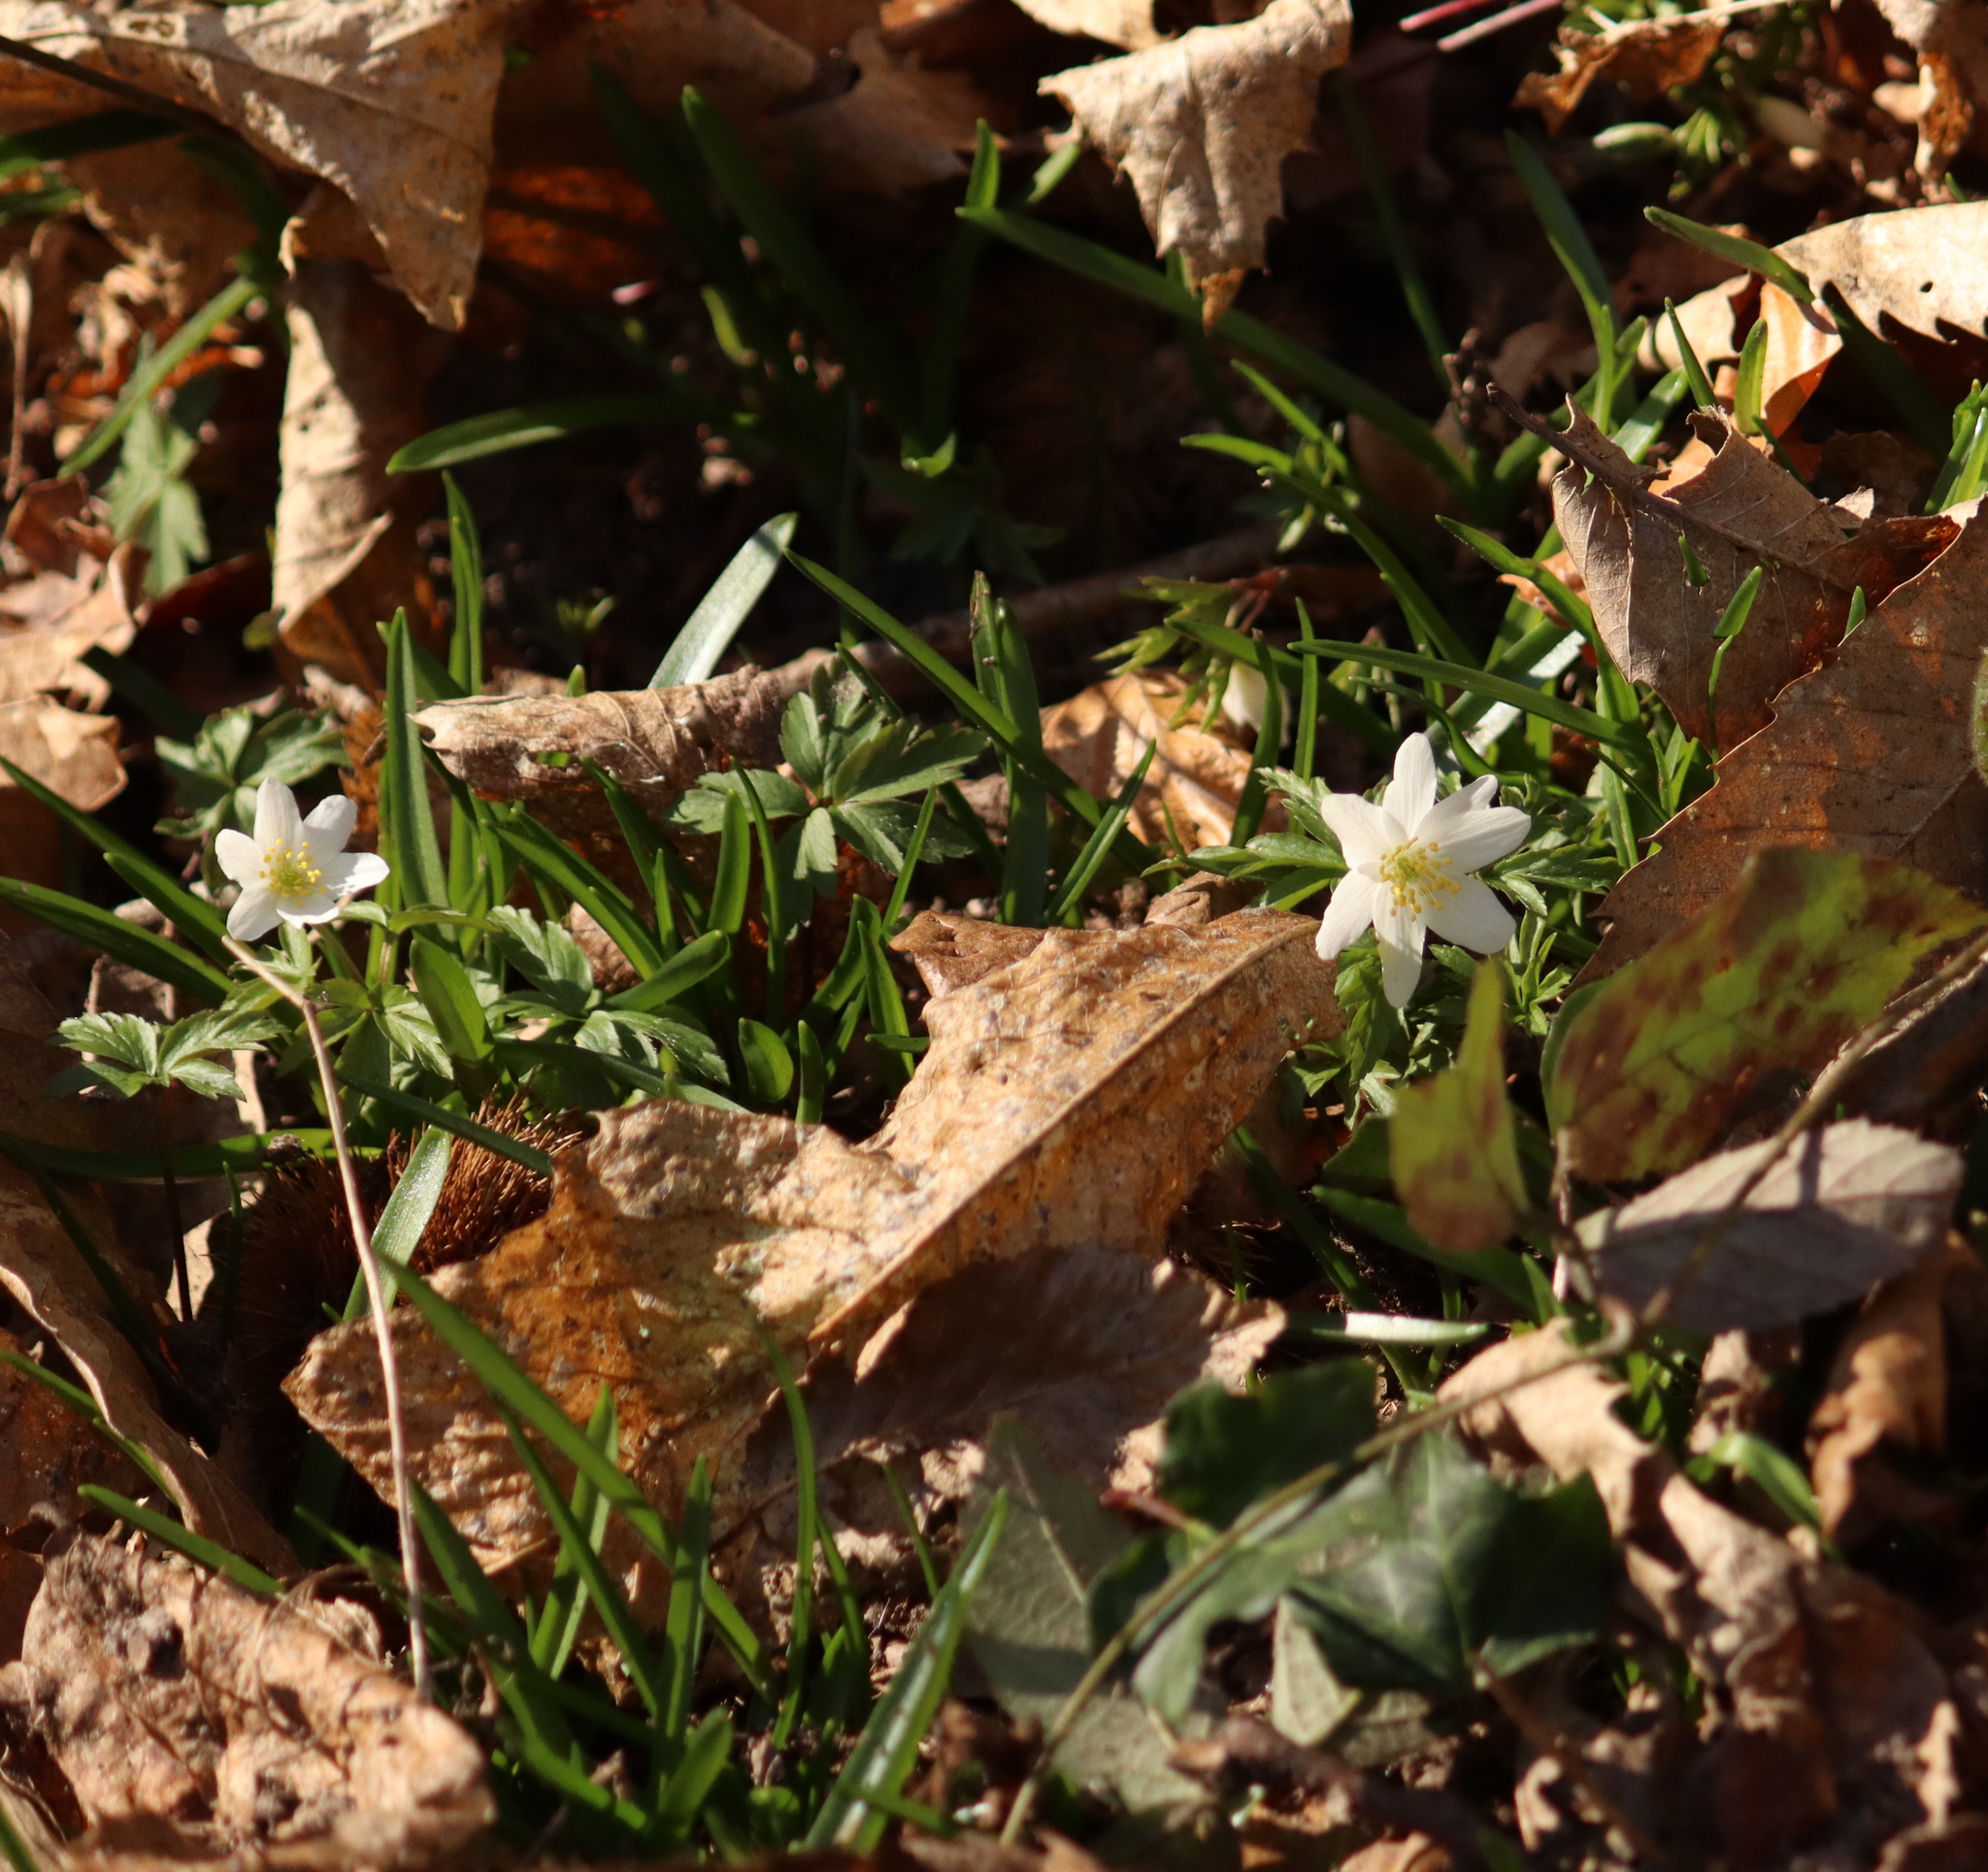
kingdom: Plantae
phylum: Tracheophyta
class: Magnoliopsida
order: Ranunculales
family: Ranunculaceae
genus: Anemone
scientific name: Anemone nemorosa
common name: Wood anemone
